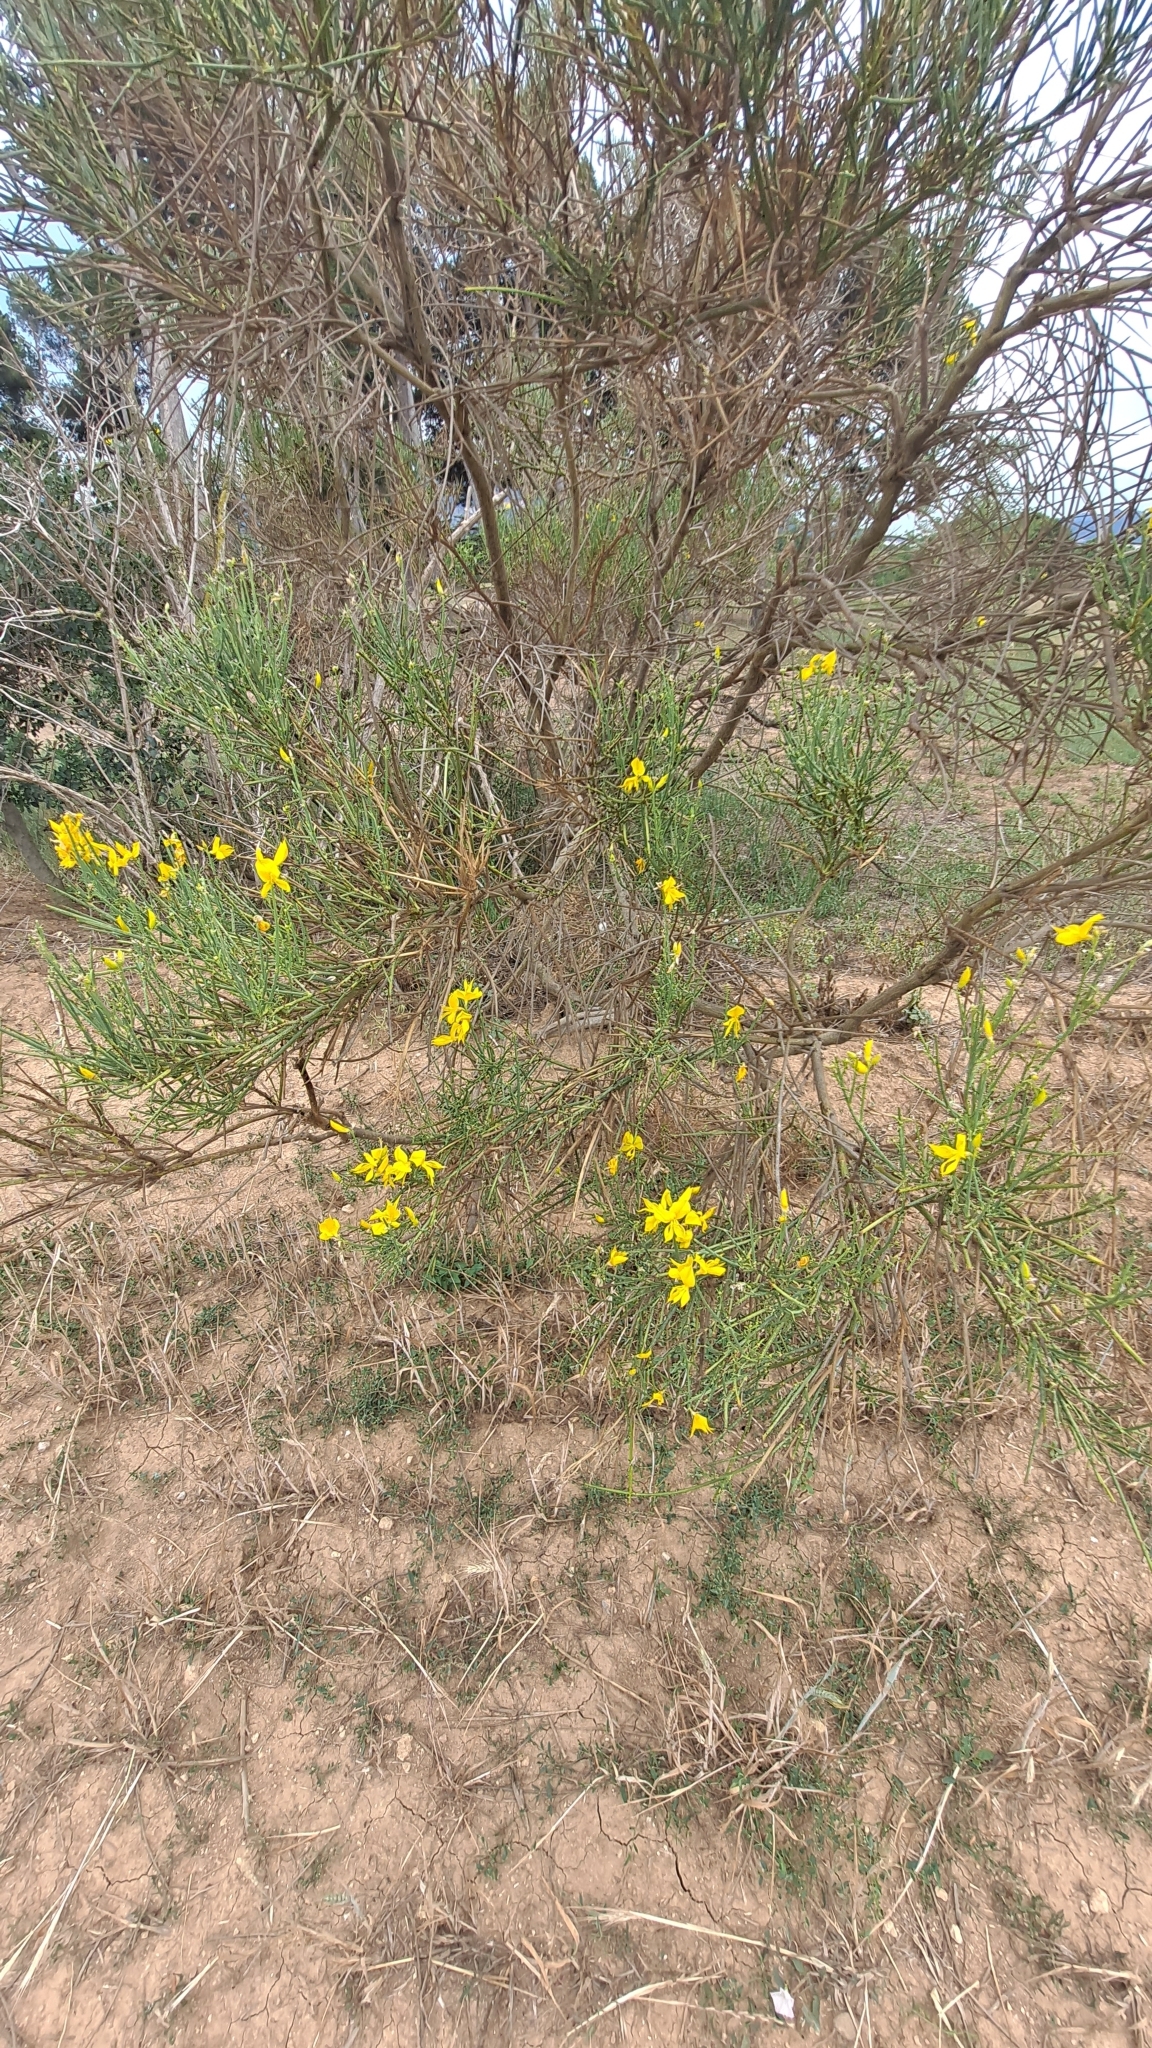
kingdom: Plantae
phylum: Tracheophyta
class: Magnoliopsida
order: Fabales
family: Fabaceae
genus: Spartium
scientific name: Spartium junceum
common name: Spanish broom
